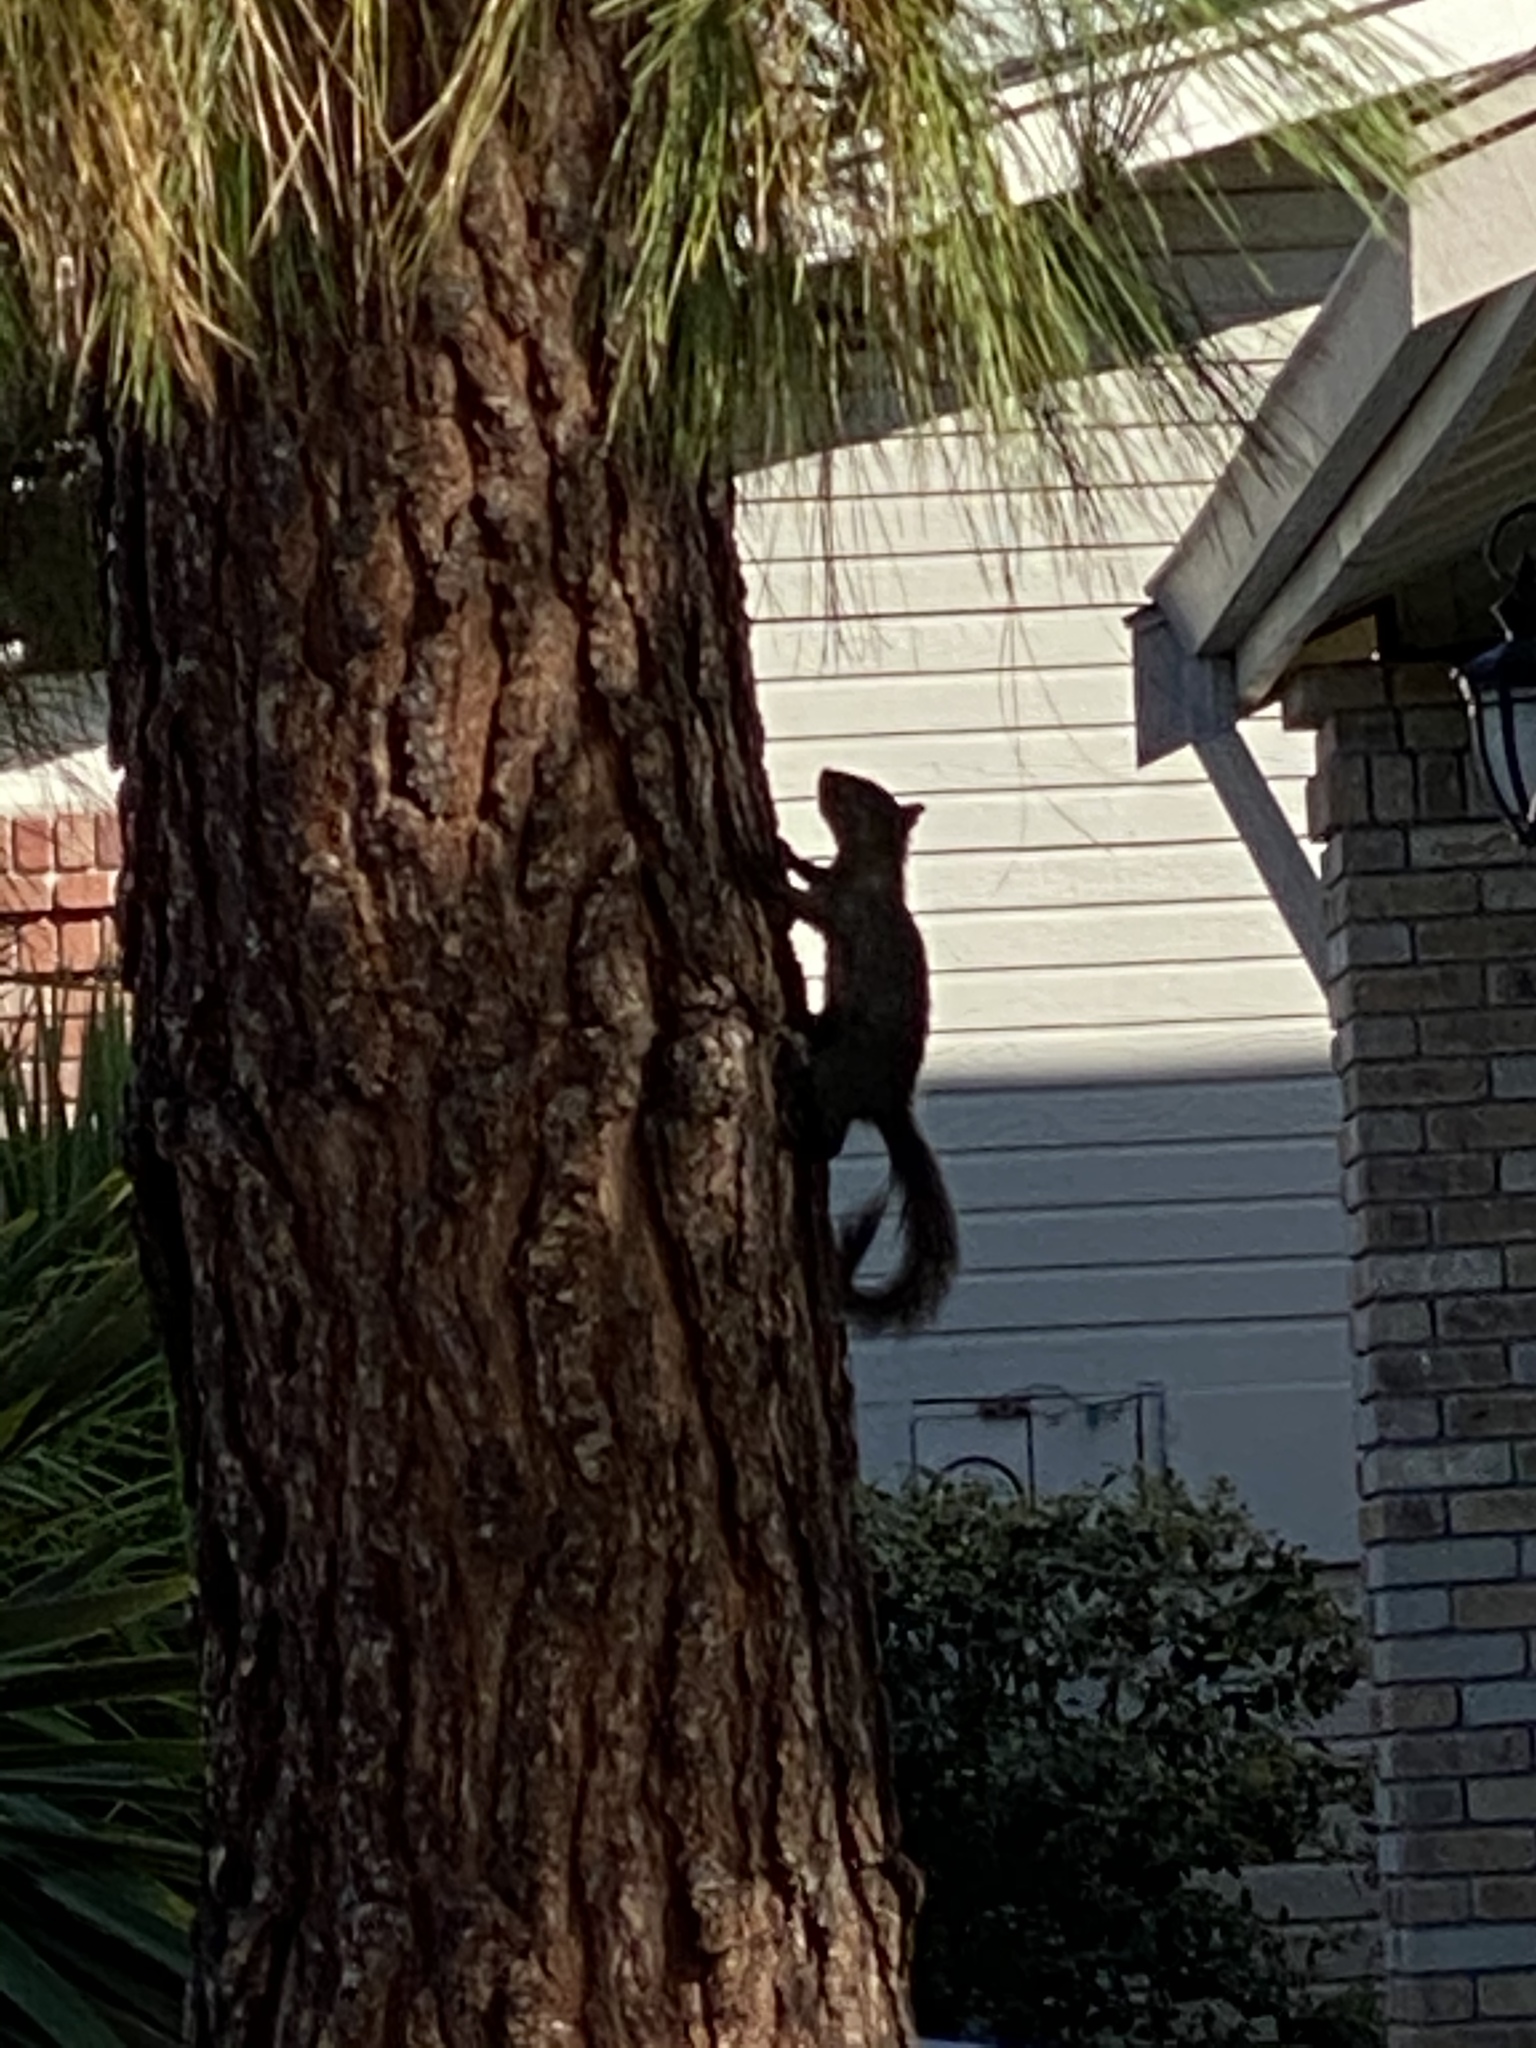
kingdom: Animalia
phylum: Chordata
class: Mammalia
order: Rodentia
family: Sciuridae
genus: Sciurus
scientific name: Sciurus carolinensis
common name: Eastern gray squirrel
